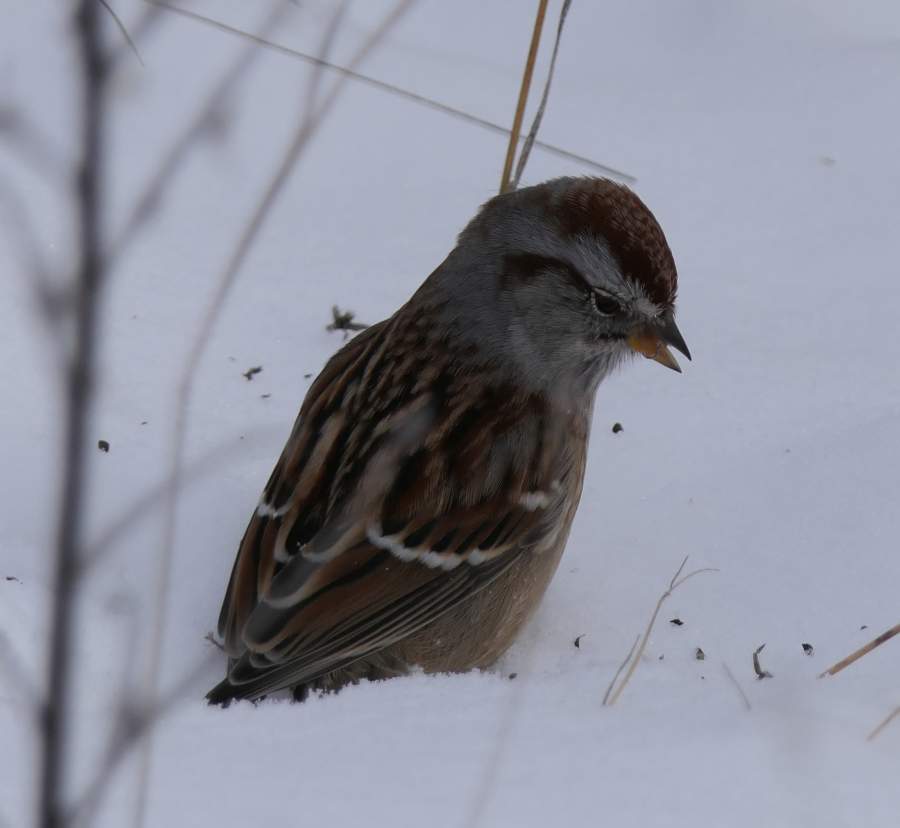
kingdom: Animalia
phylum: Chordata
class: Aves
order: Passeriformes
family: Passerellidae
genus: Spizelloides
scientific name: Spizelloides arborea
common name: American tree sparrow
